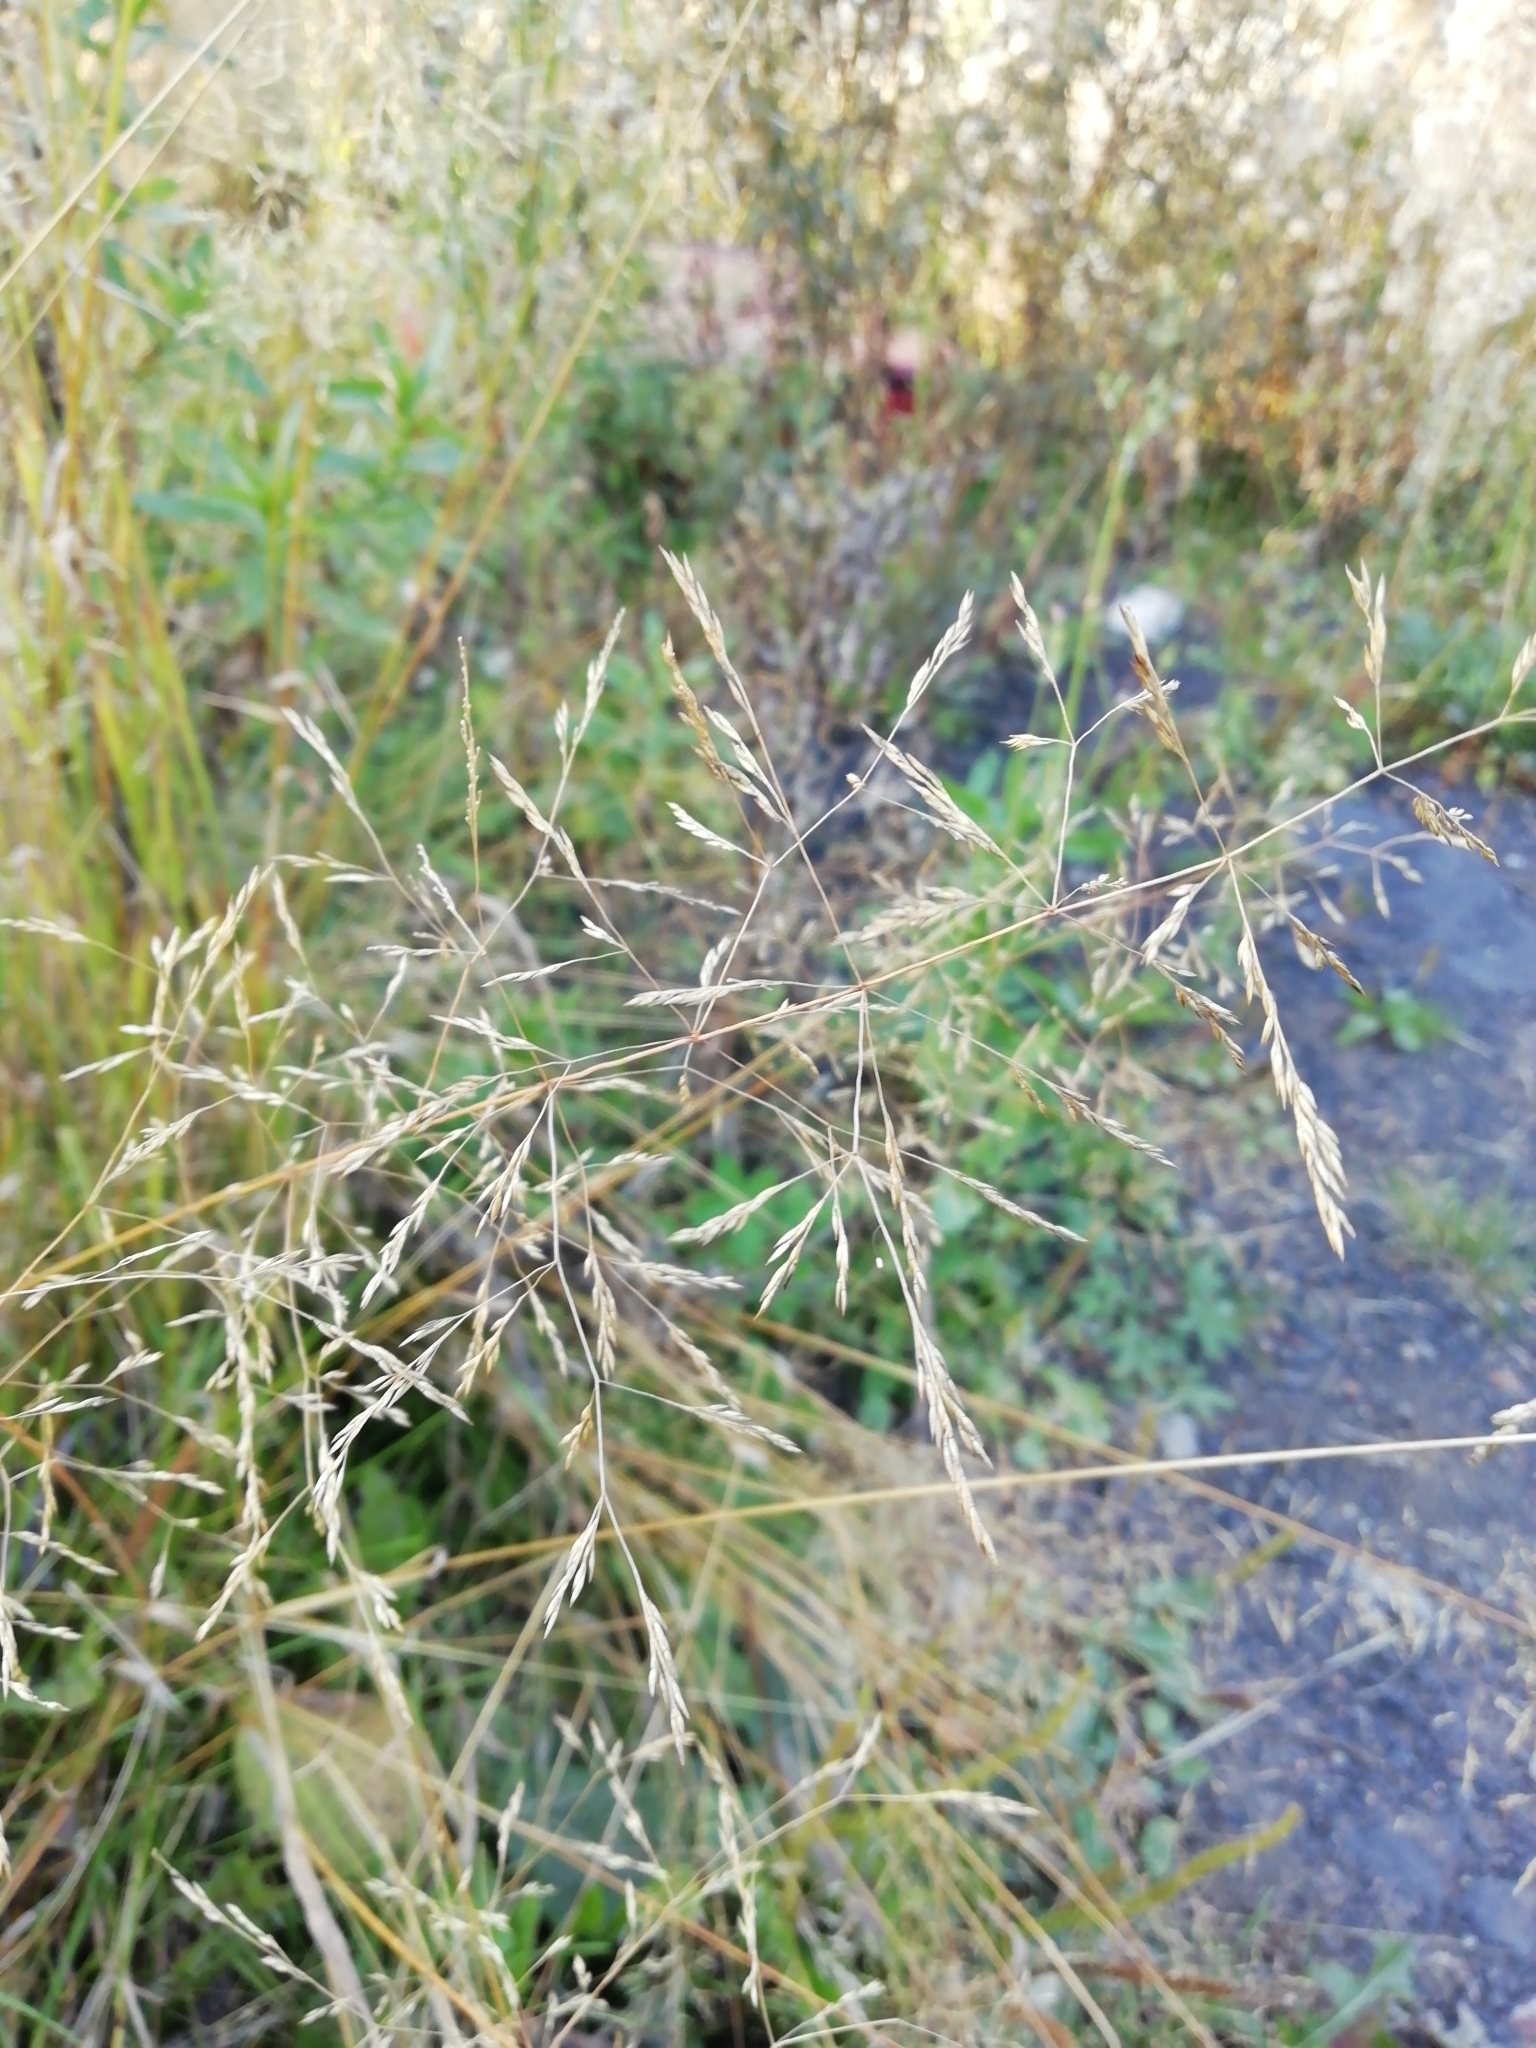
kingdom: Plantae
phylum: Tracheophyta
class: Liliopsida
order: Poales
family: Poaceae
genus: Agrostis
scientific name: Agrostis gigantea
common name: Black bent
